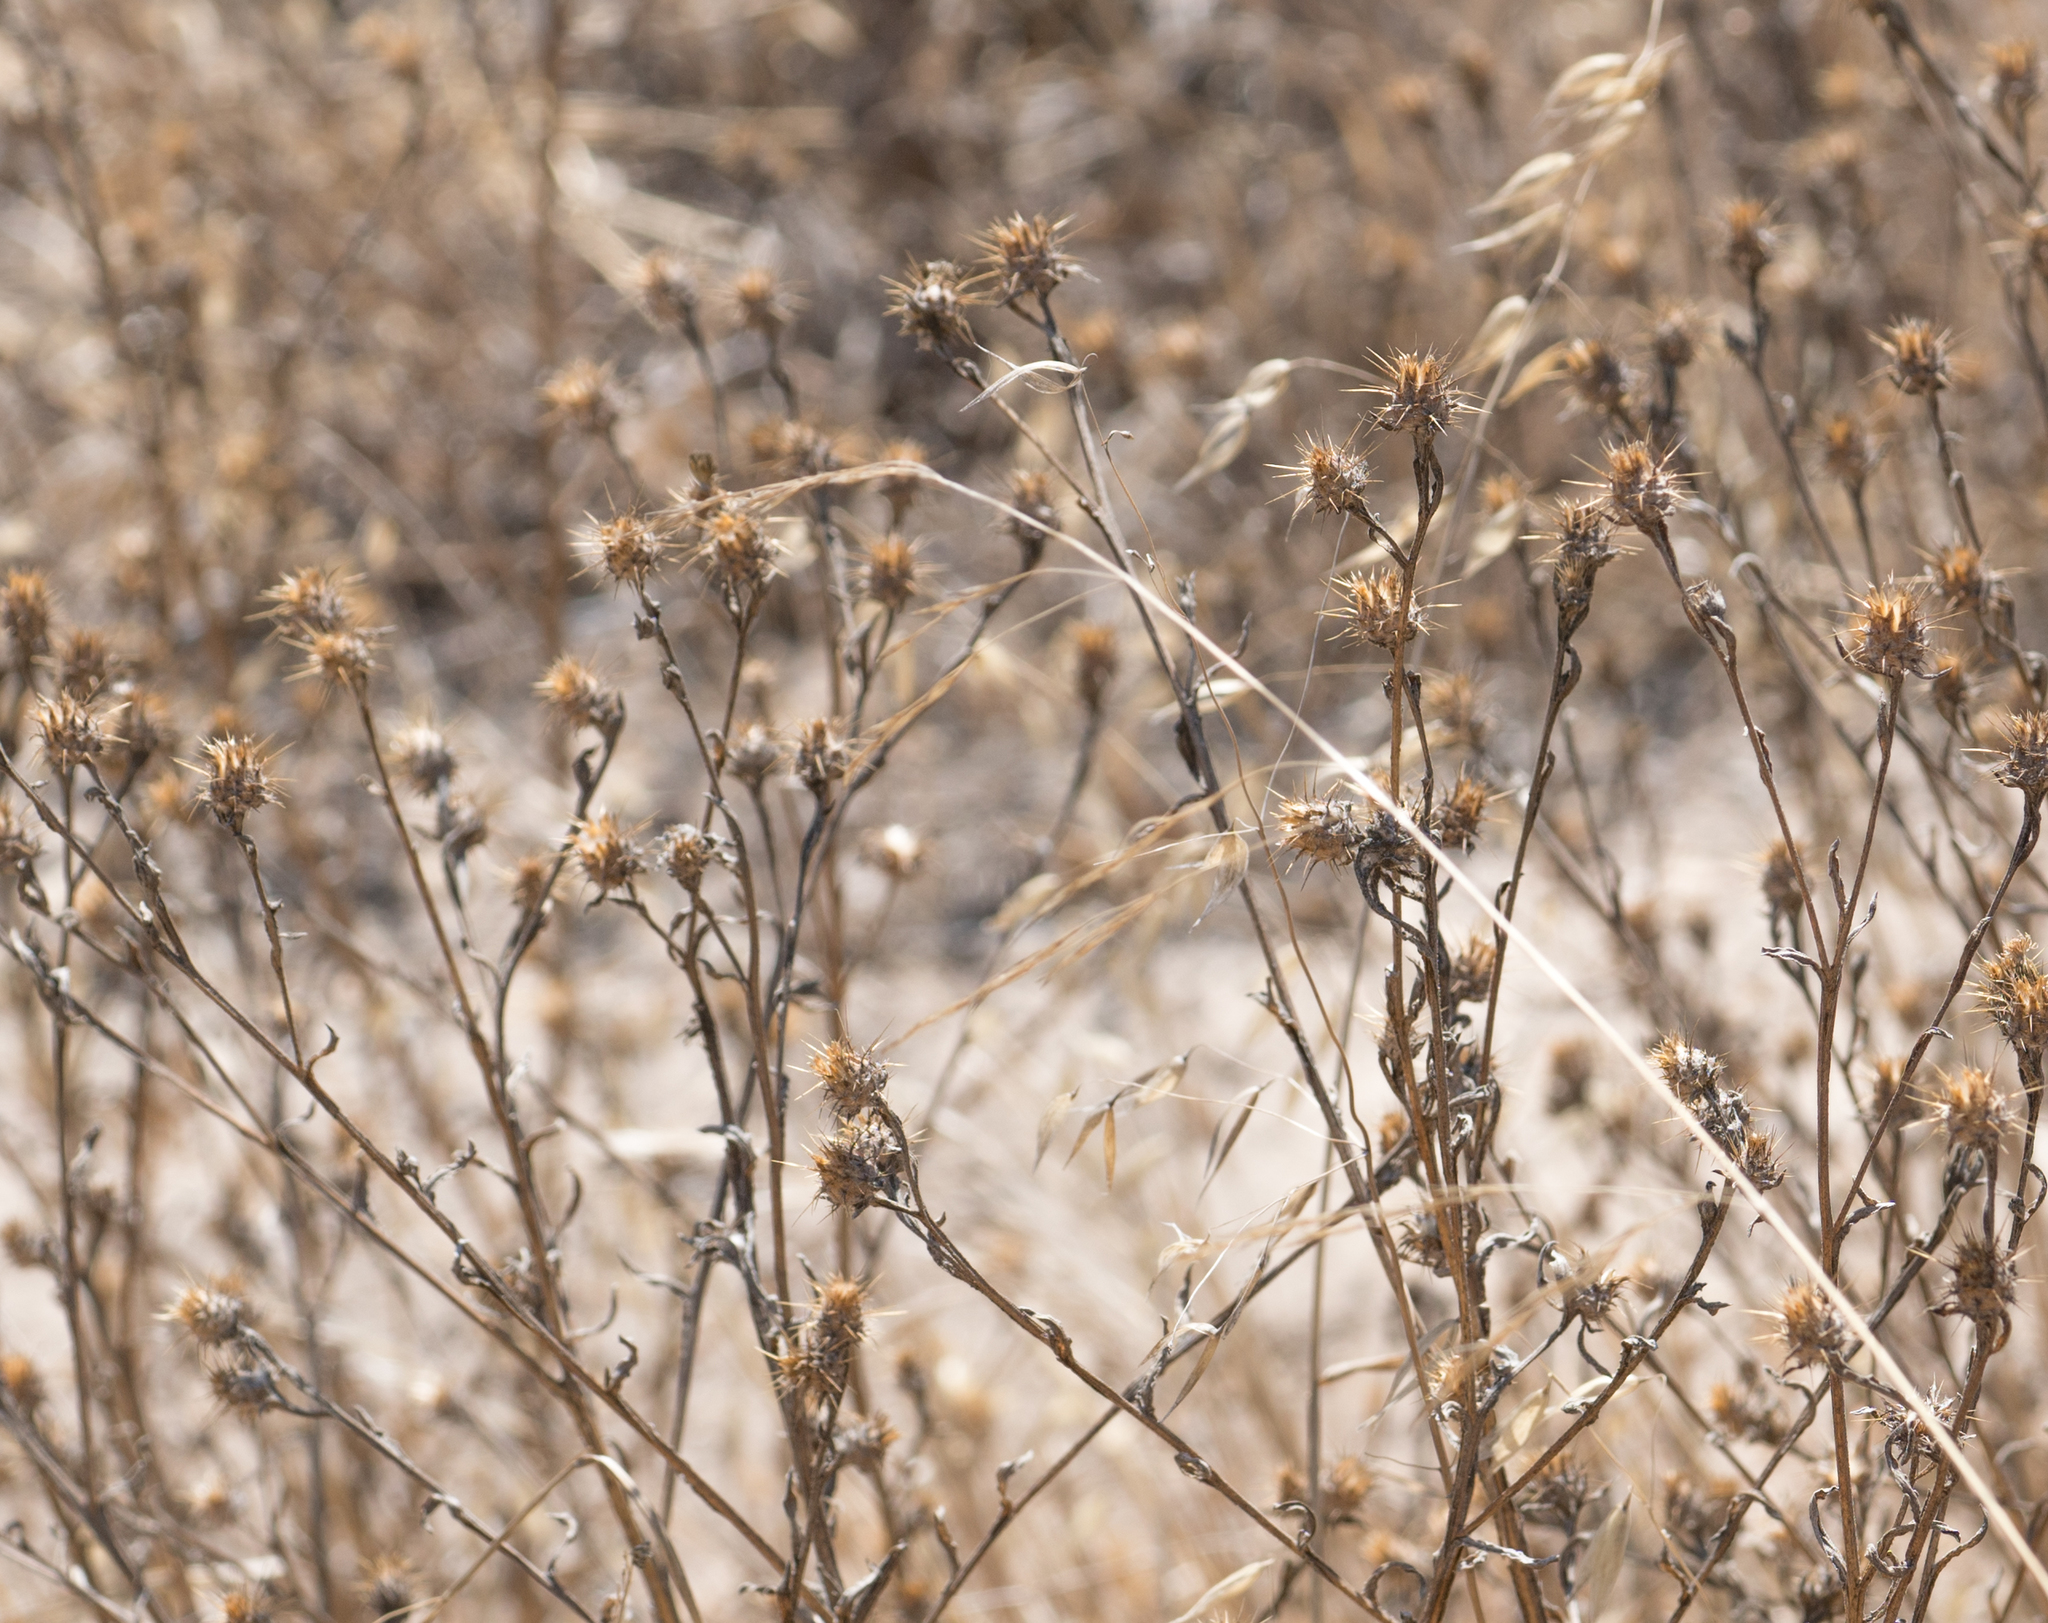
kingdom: Plantae
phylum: Tracheophyta
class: Magnoliopsida
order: Asterales
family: Asteraceae
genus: Centaurea
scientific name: Centaurea melitensis
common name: Maltese star-thistle
